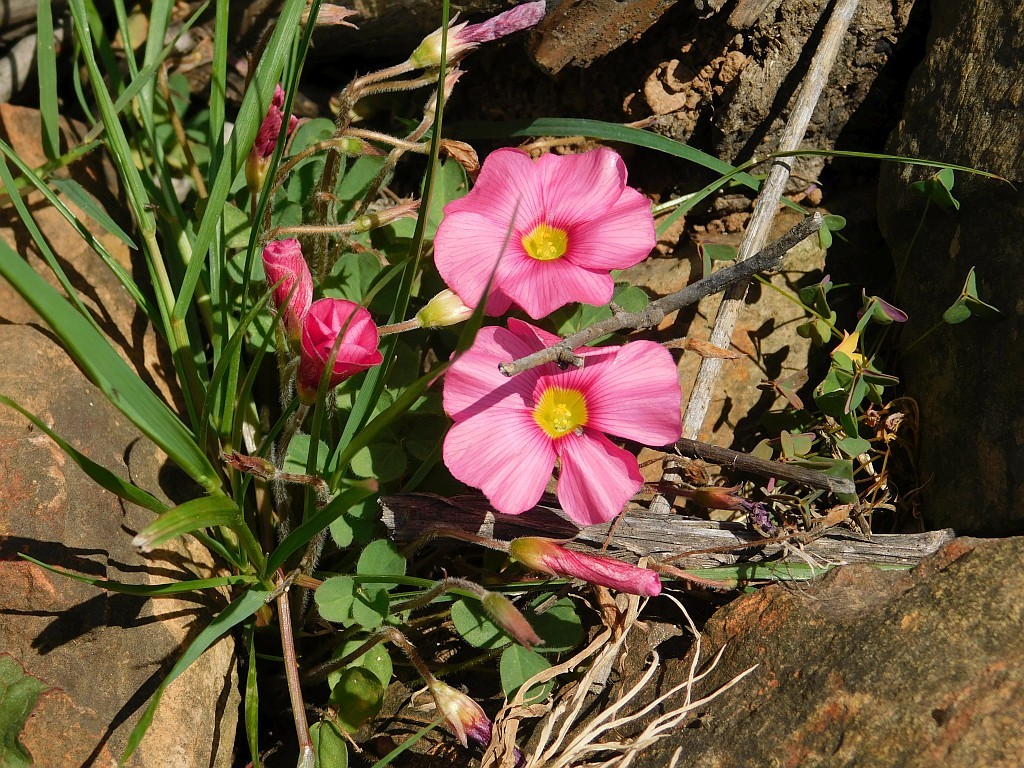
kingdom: Plantae
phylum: Tracheophyta
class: Magnoliopsida
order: Oxalidales
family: Oxalidaceae
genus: Oxalis
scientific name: Oxalis obtusa
